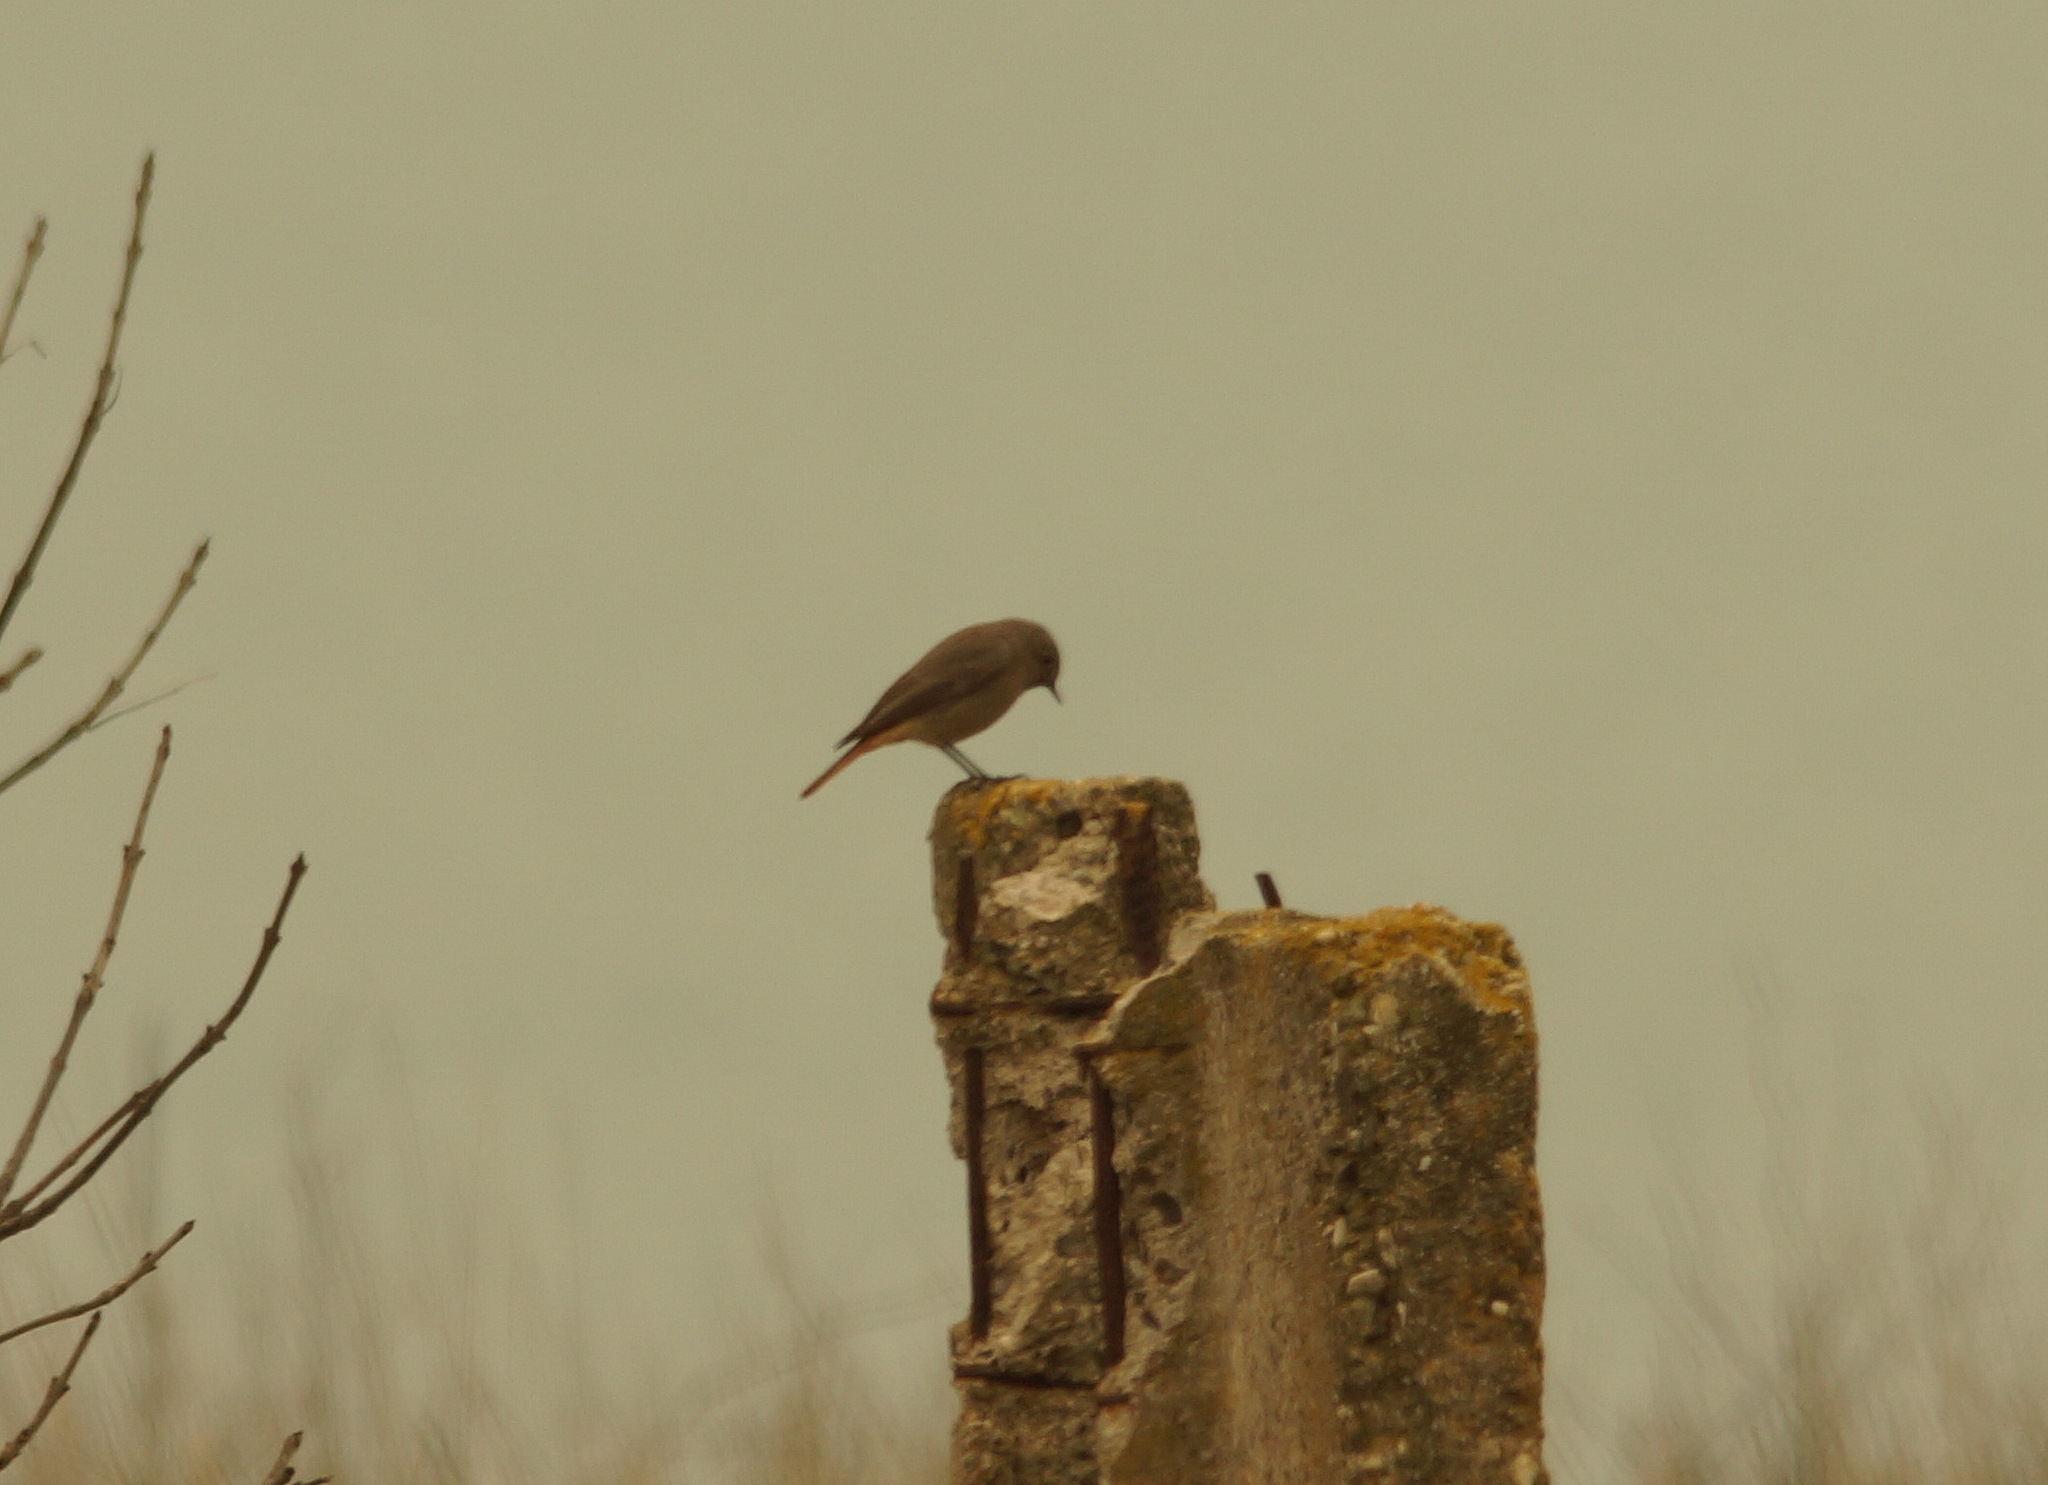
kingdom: Animalia
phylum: Chordata
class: Aves
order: Passeriformes
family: Muscicapidae
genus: Phoenicurus
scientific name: Phoenicurus ochruros
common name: Black redstart
